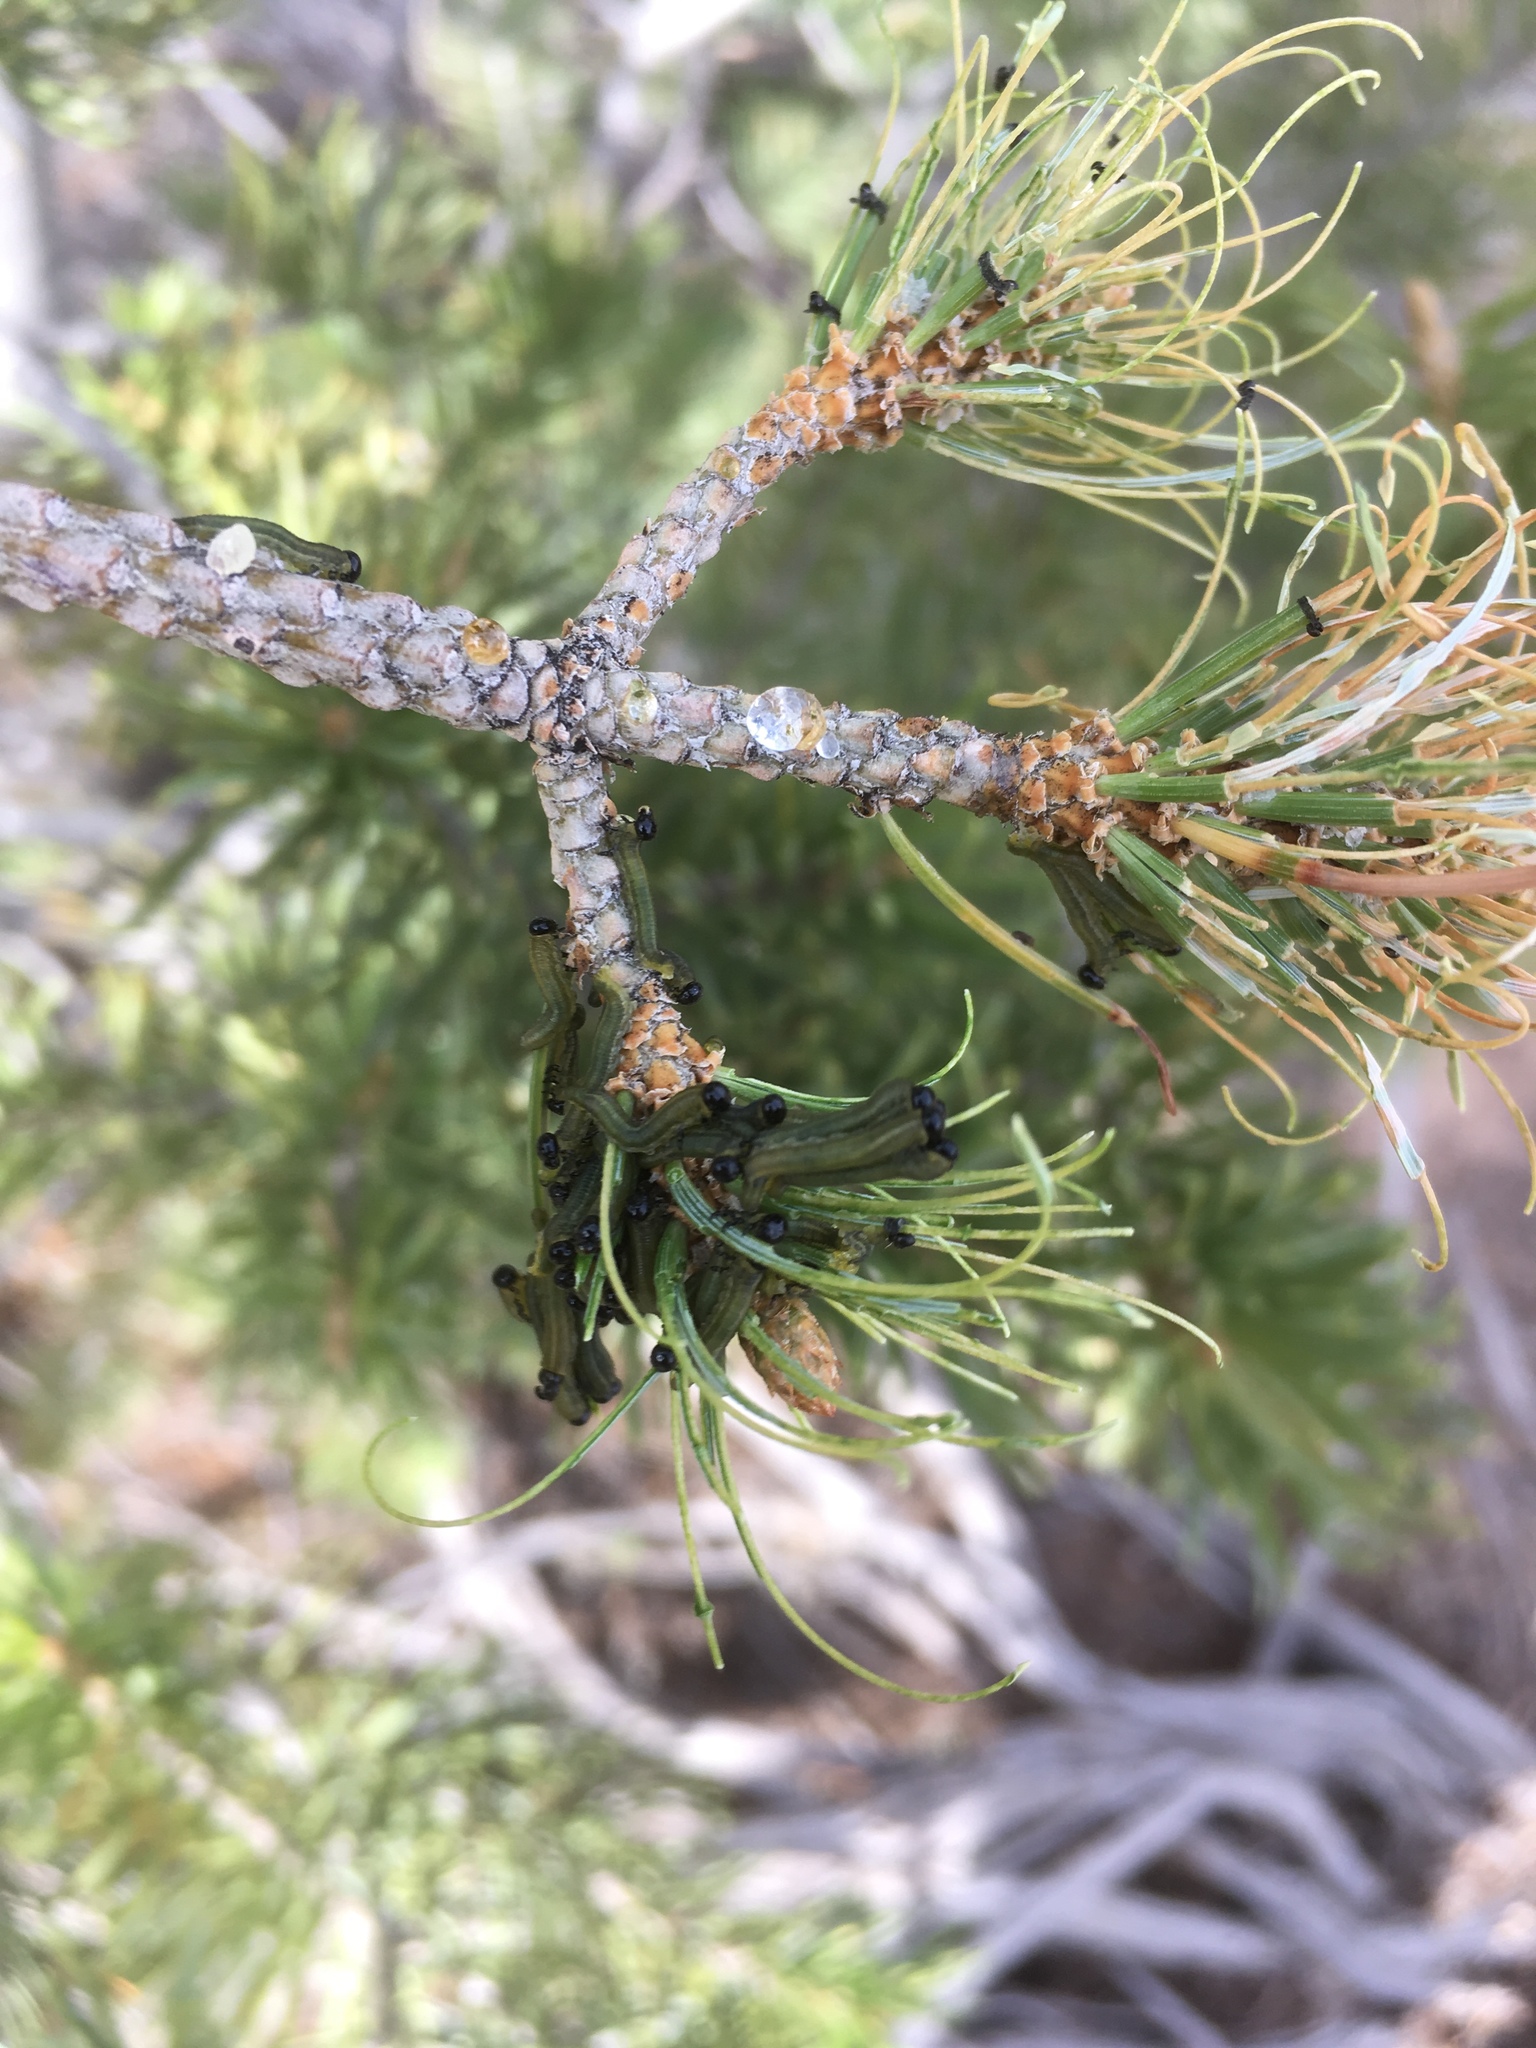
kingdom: Animalia
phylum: Arthropoda
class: Insecta
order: Hymenoptera
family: Diprionidae
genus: Neodiprion
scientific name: Neodiprion
